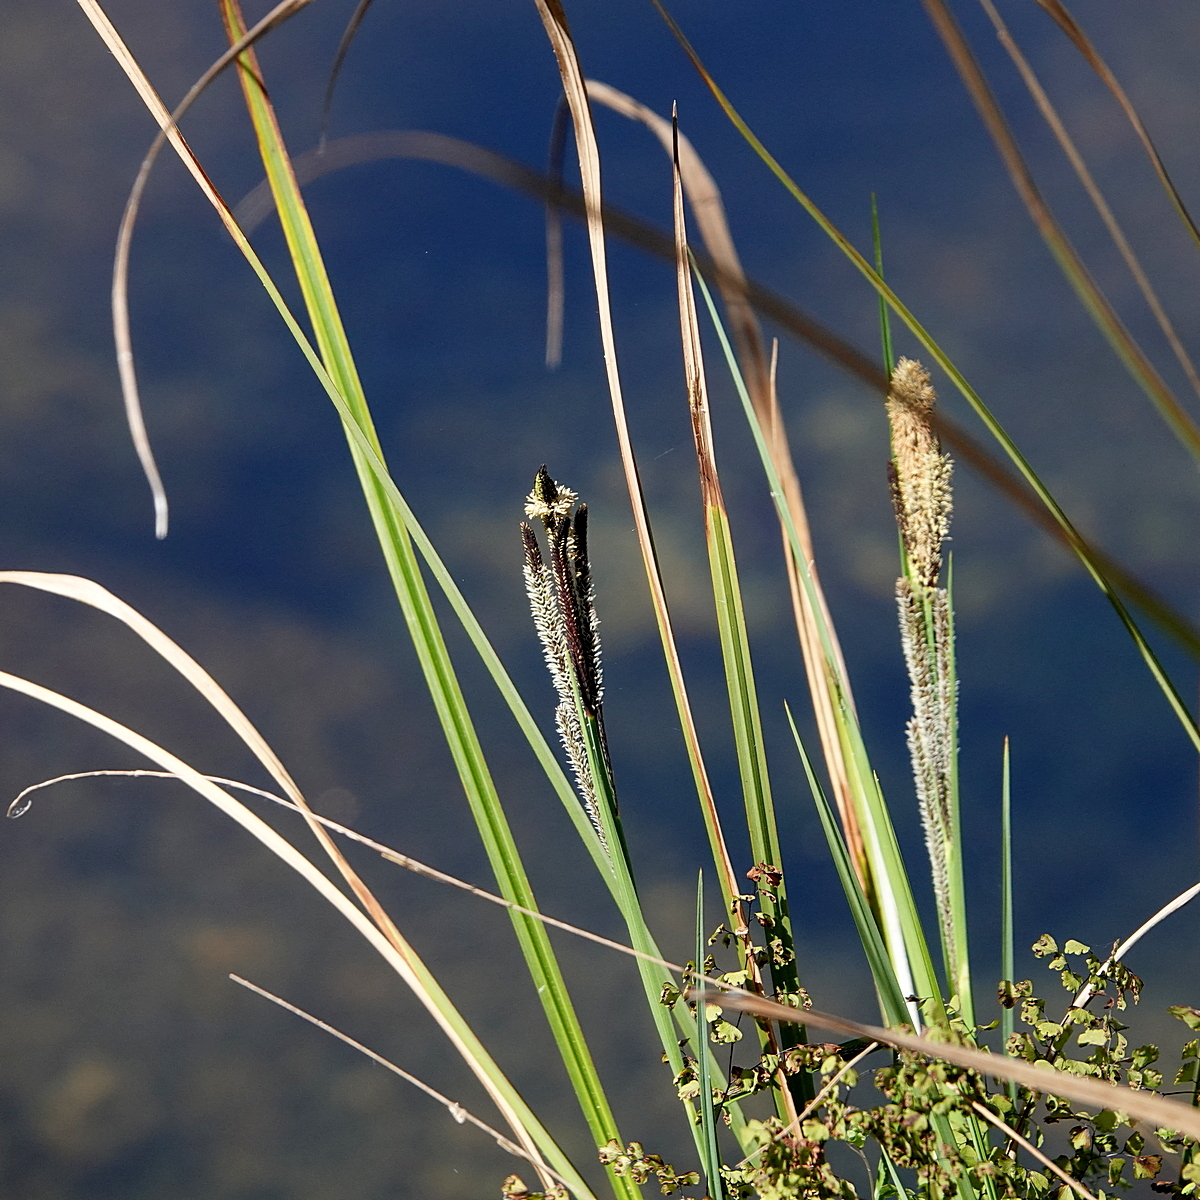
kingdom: Plantae
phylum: Tracheophyta
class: Liliopsida
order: Poales
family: Cyperaceae
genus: Carex
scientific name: Carex gaudichaudiana
